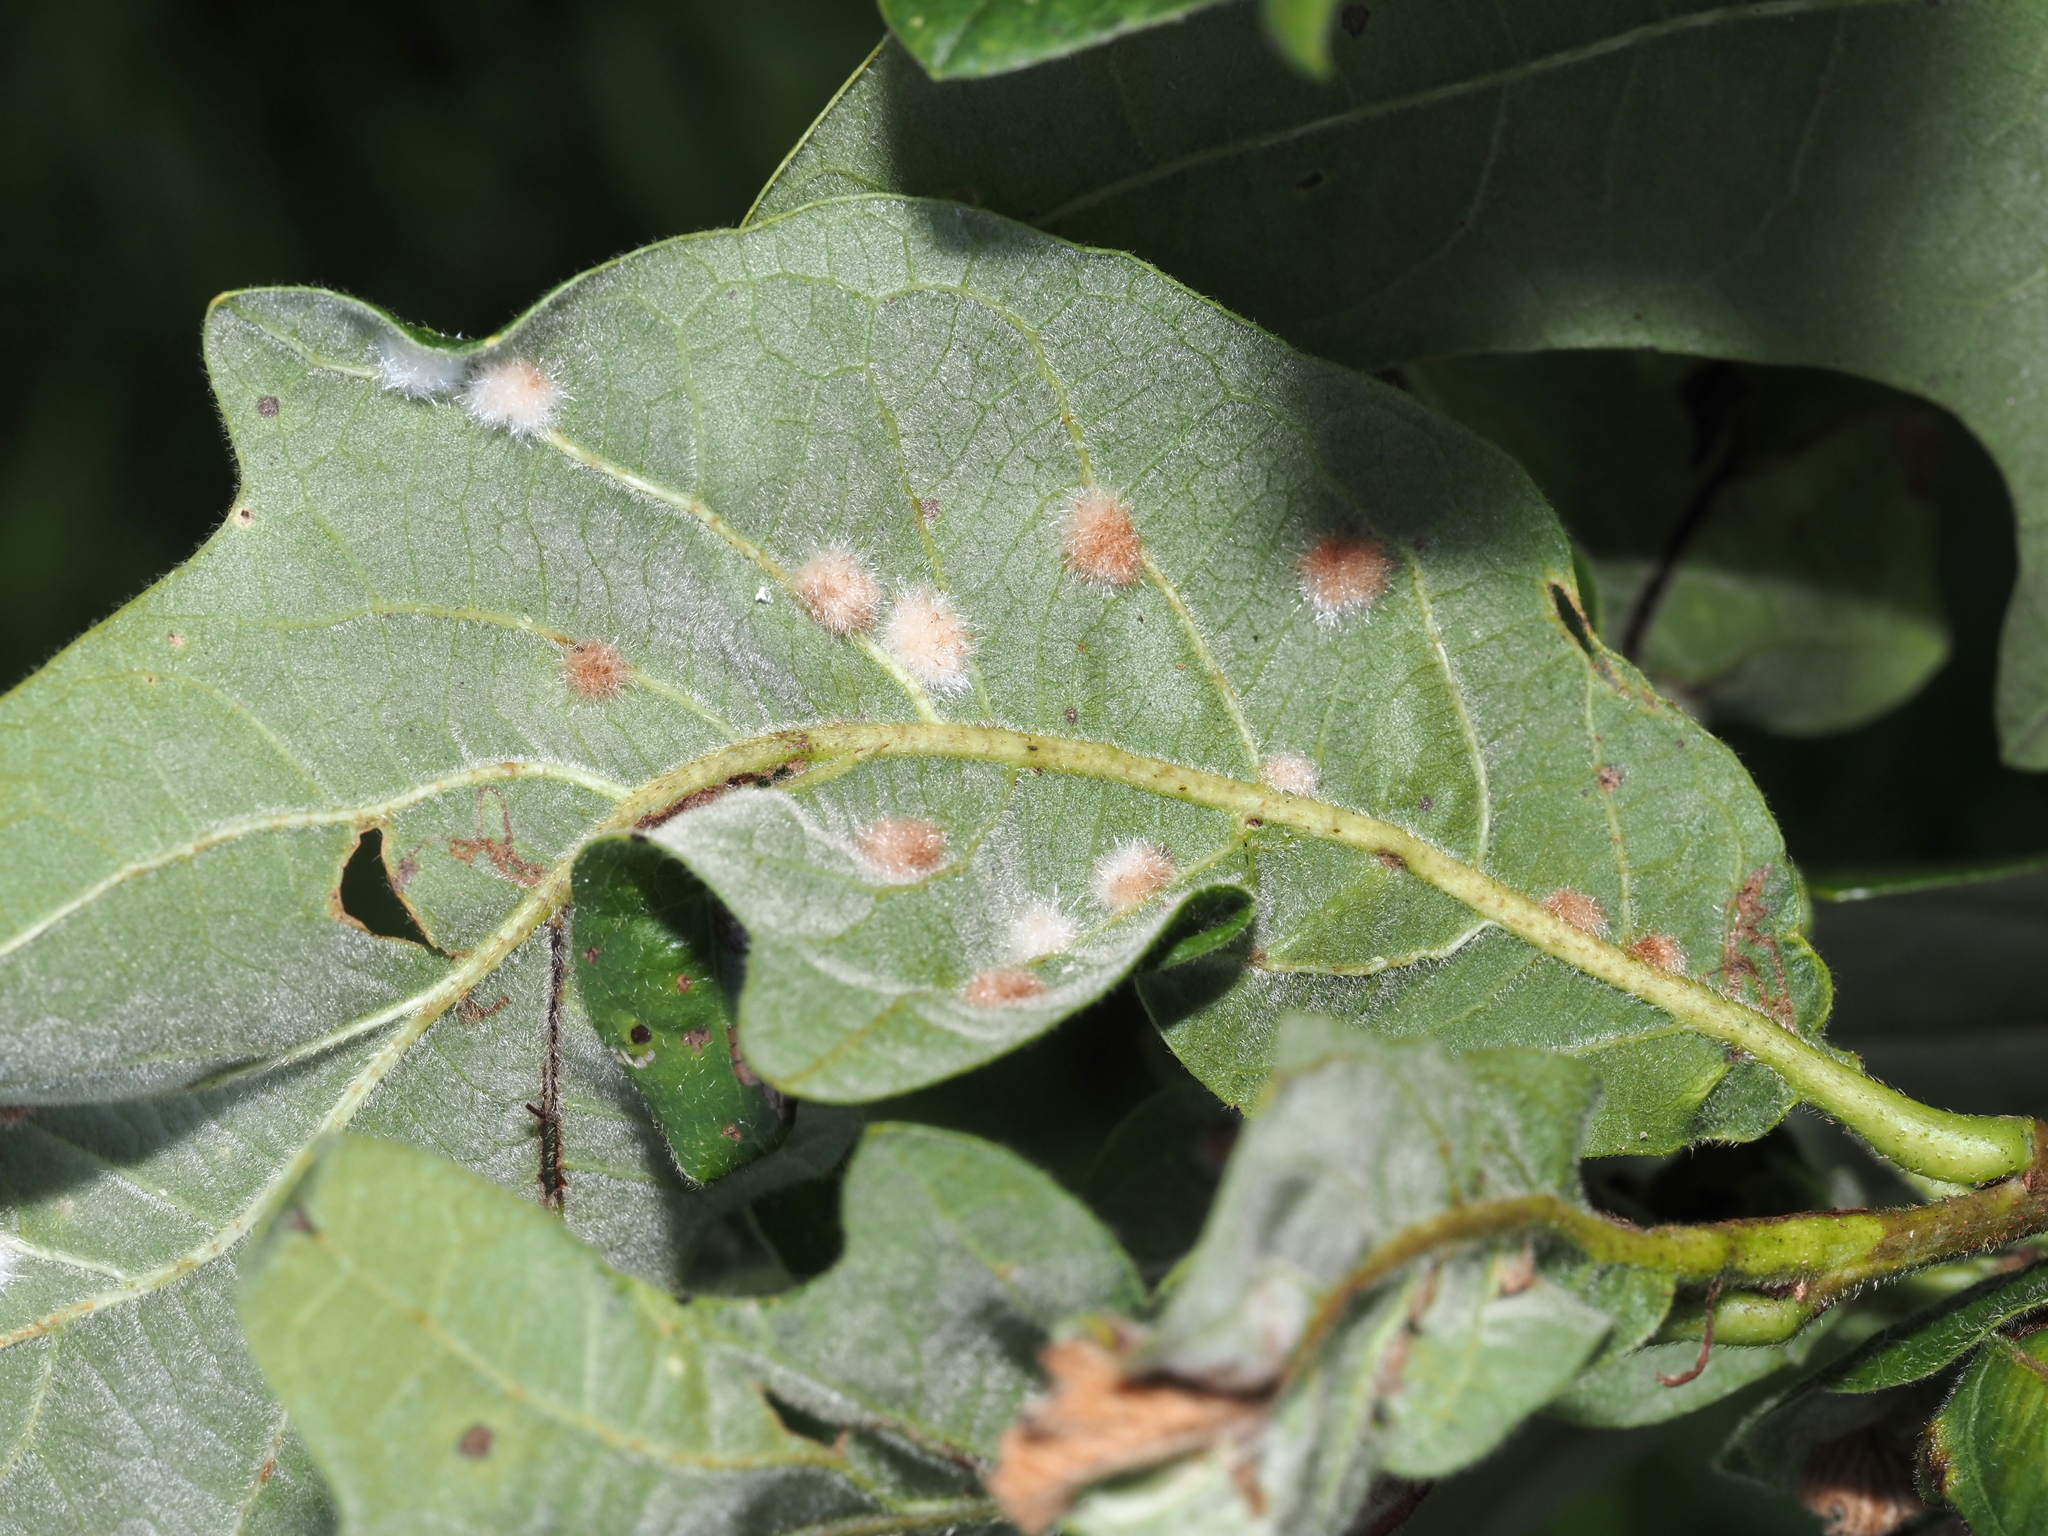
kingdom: Animalia
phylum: Arthropoda
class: Insecta
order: Hymenoptera
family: Cynipidae
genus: Neuroterus
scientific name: Neuroterus floccosus
